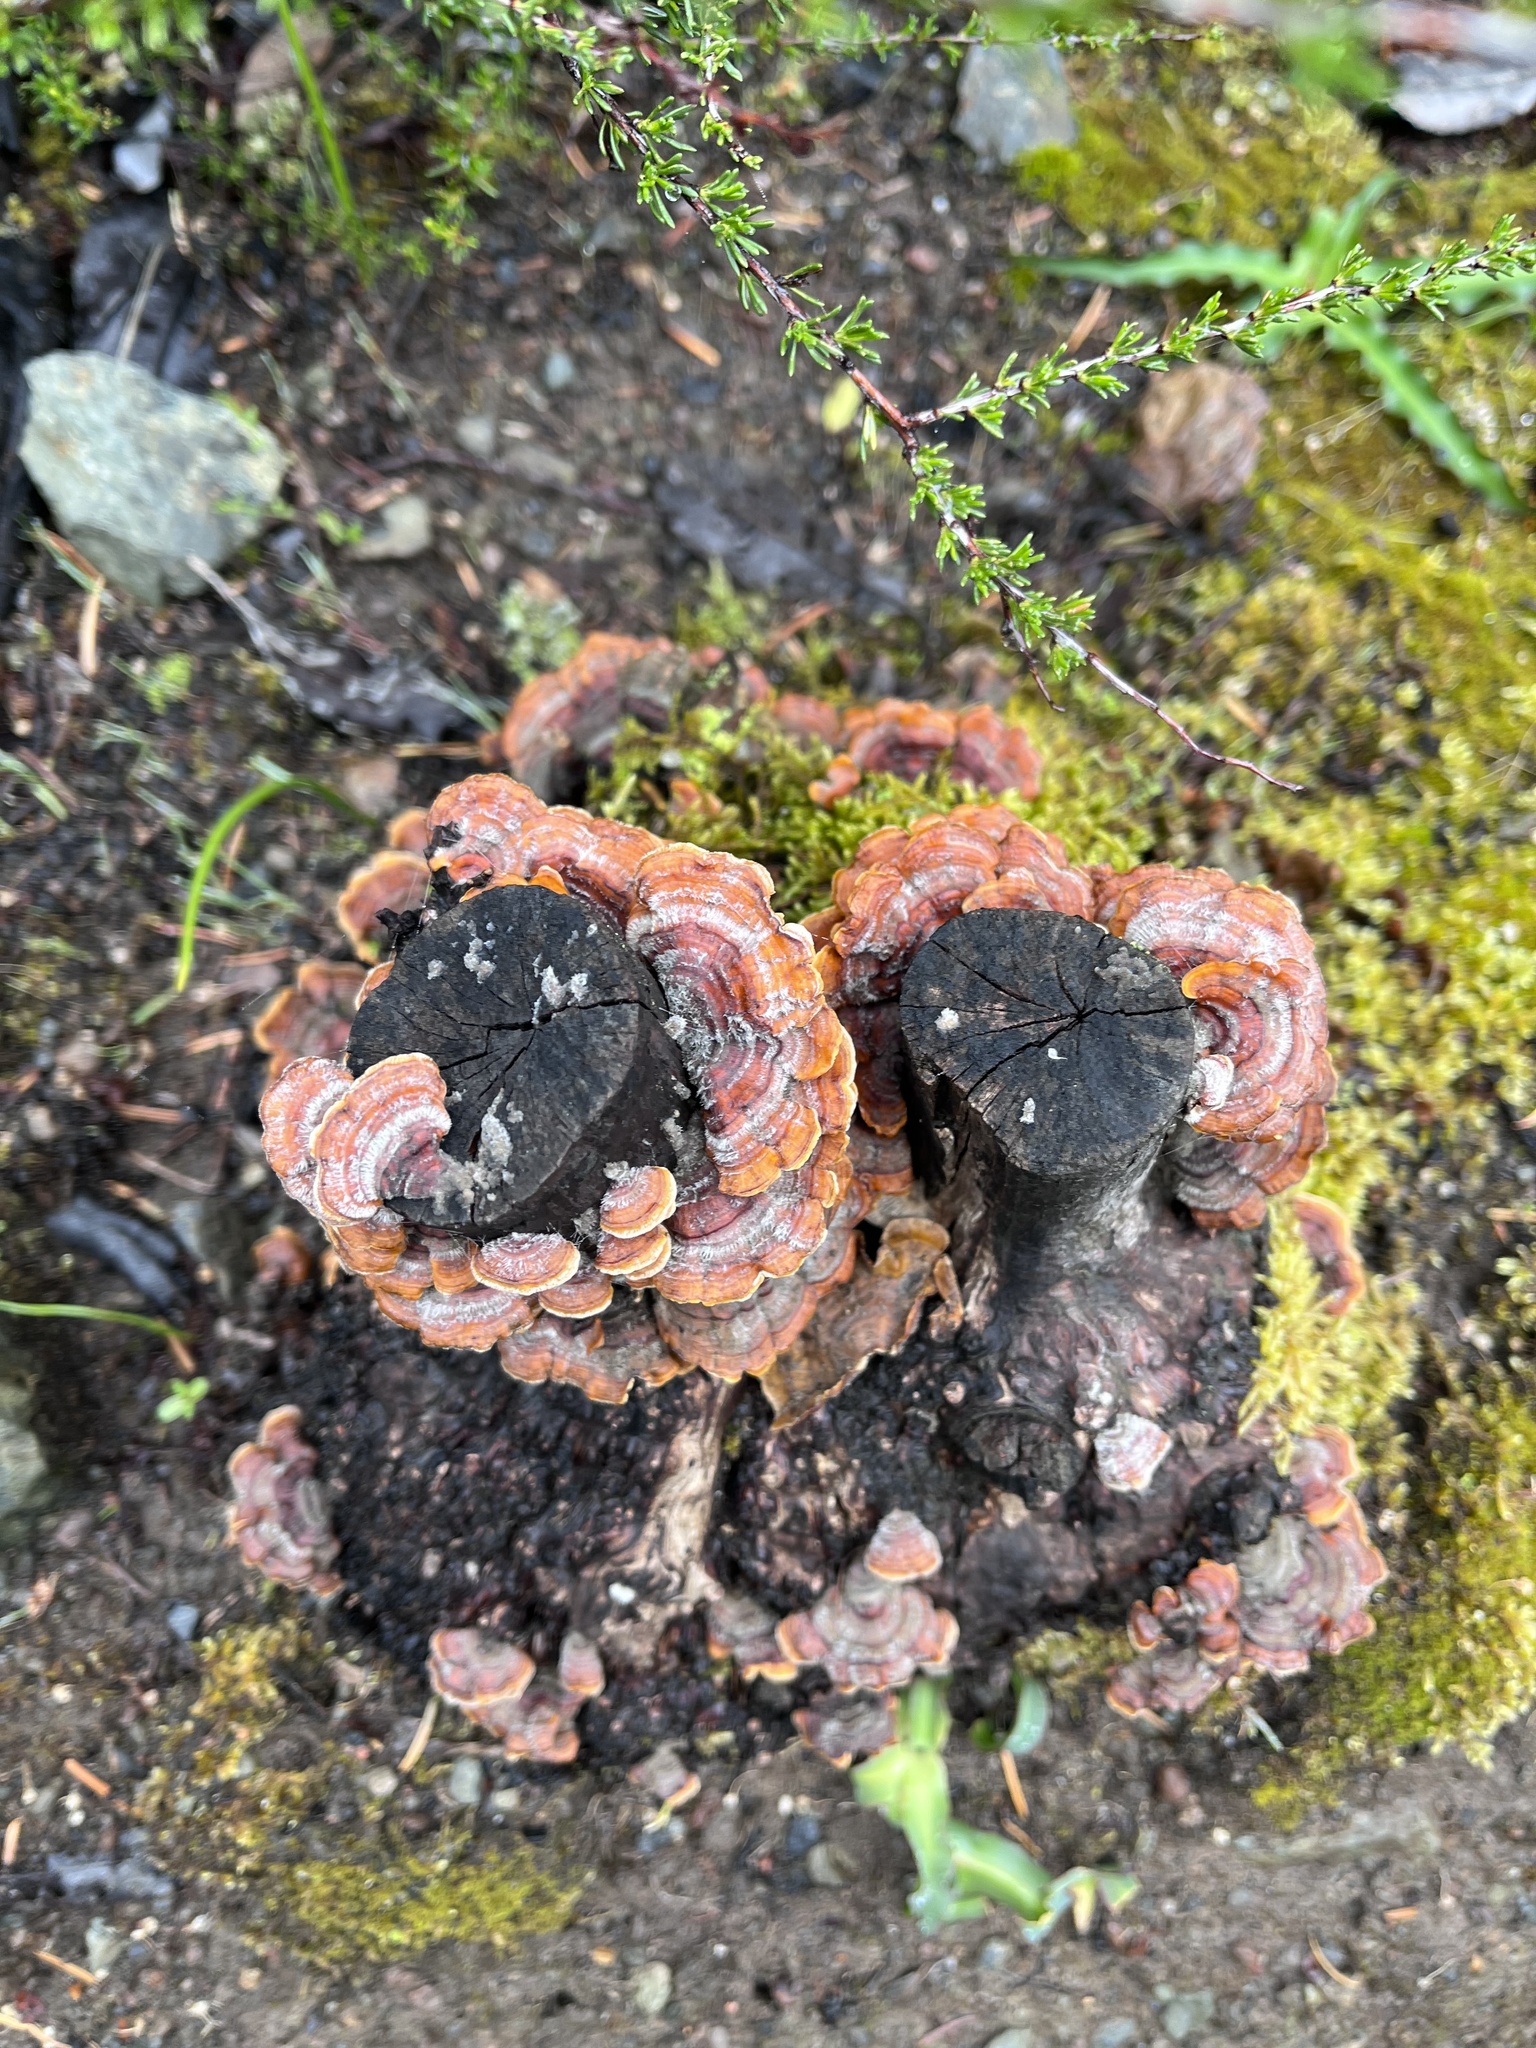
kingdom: Fungi
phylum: Basidiomycota
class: Agaricomycetes
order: Russulales
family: Stereaceae
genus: Stereum
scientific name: Stereum hirsutum
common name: Hairy curtain crust
